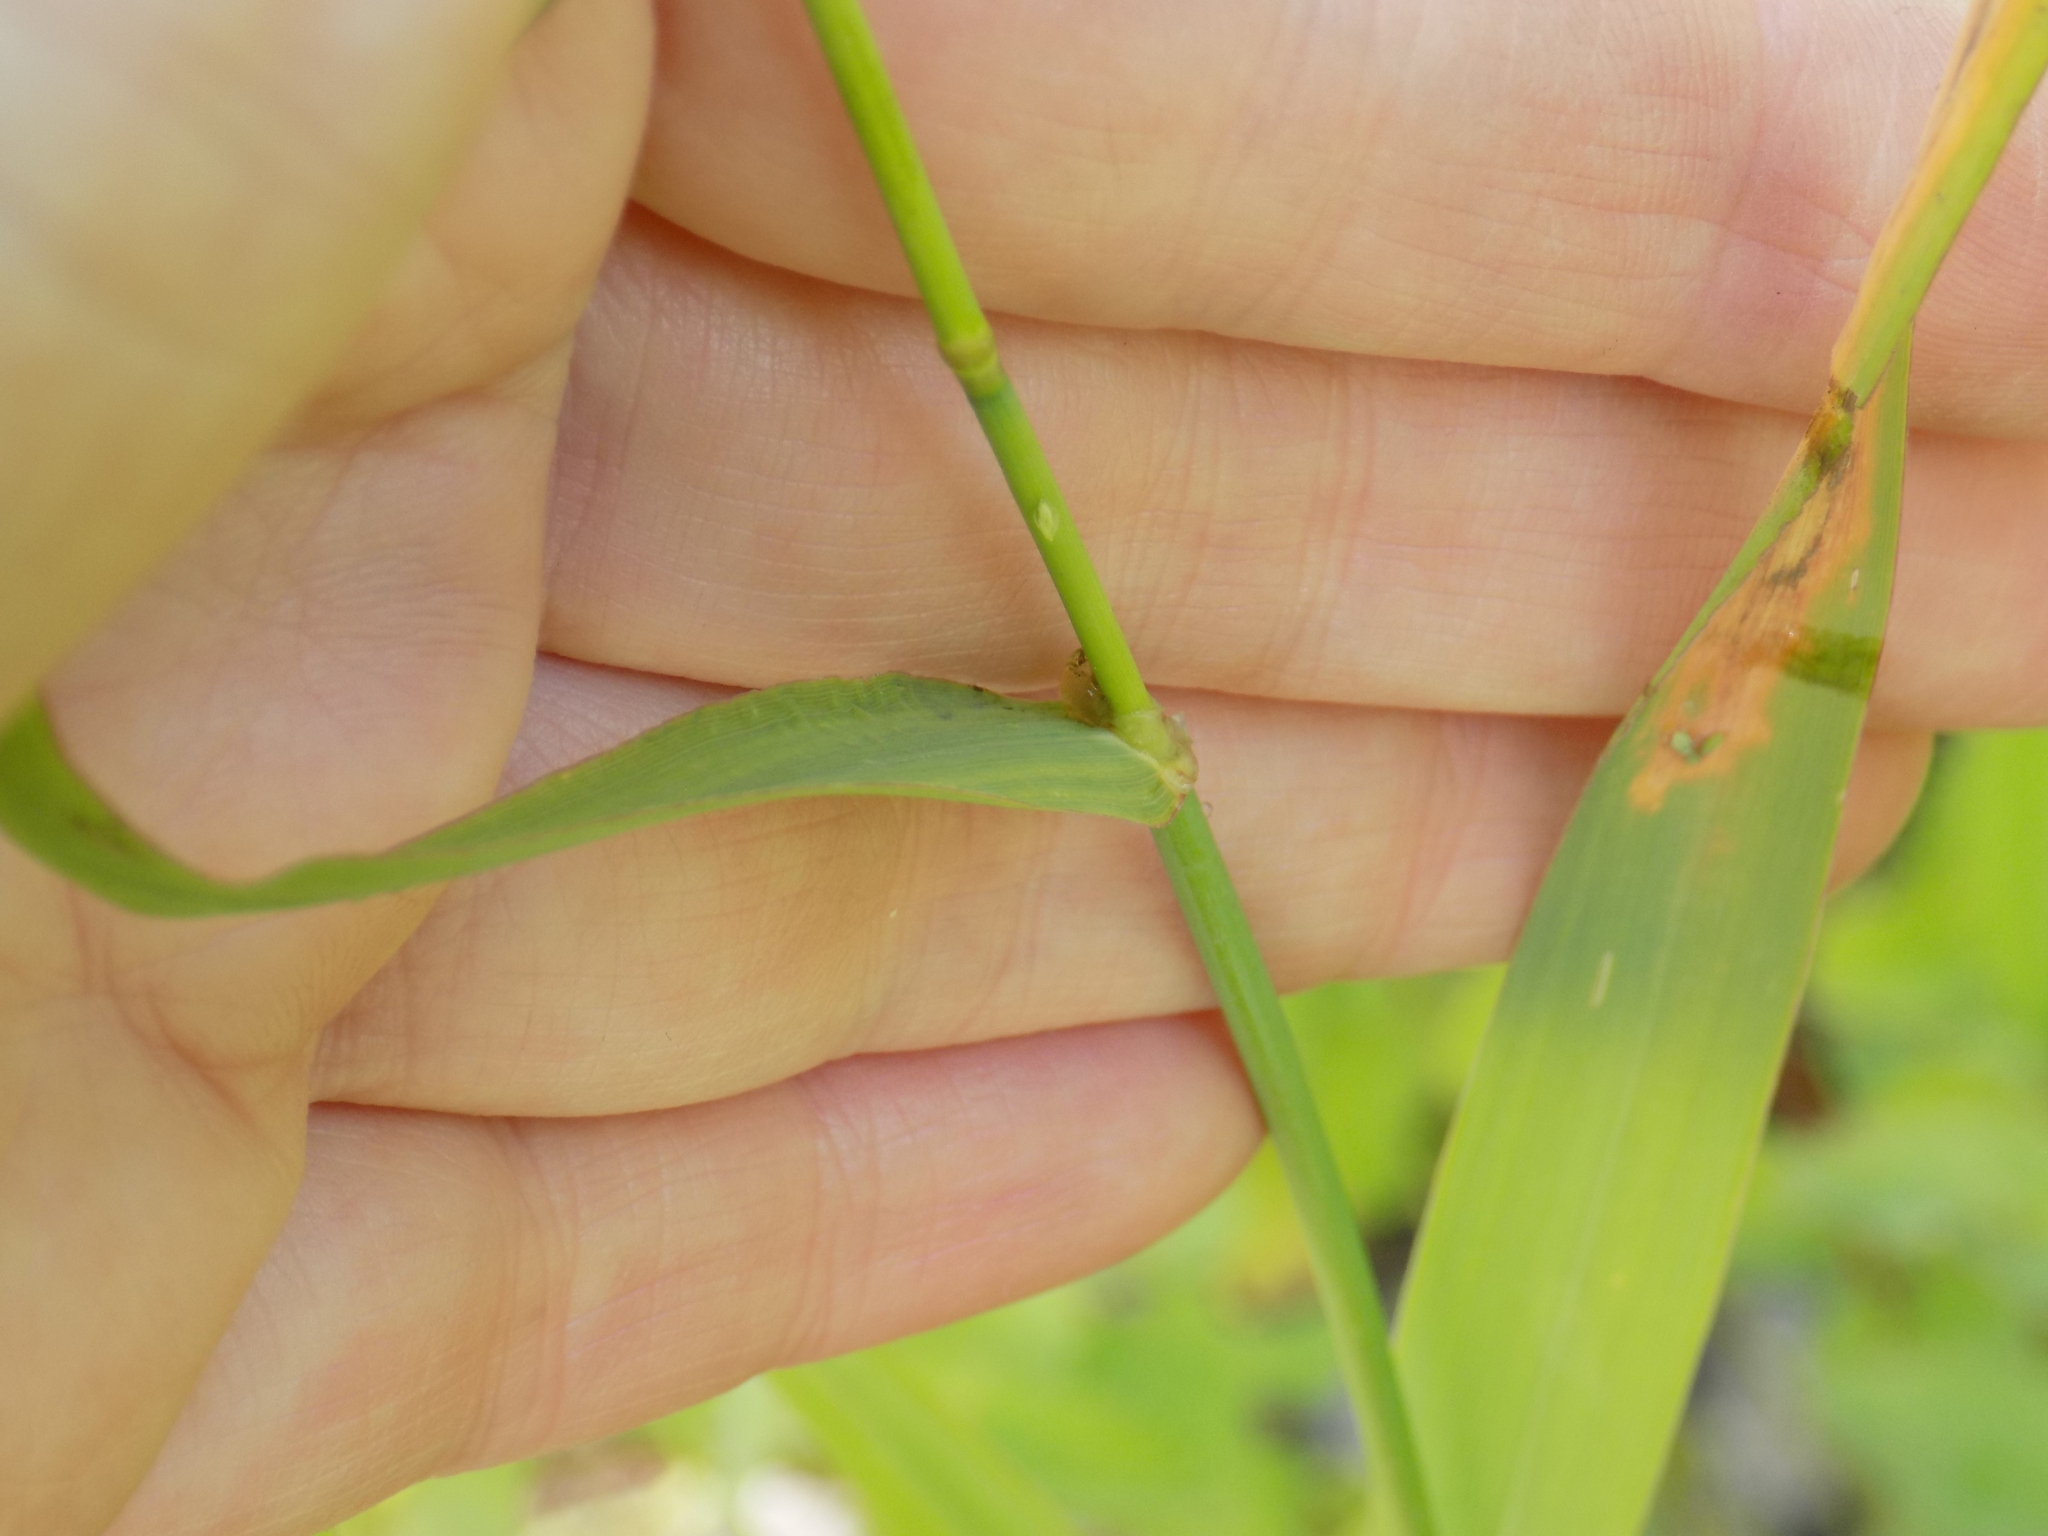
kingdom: Plantae
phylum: Tracheophyta
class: Liliopsida
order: Poales
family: Poaceae
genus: Phalaris
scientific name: Phalaris arundinacea
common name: Reed canary-grass
